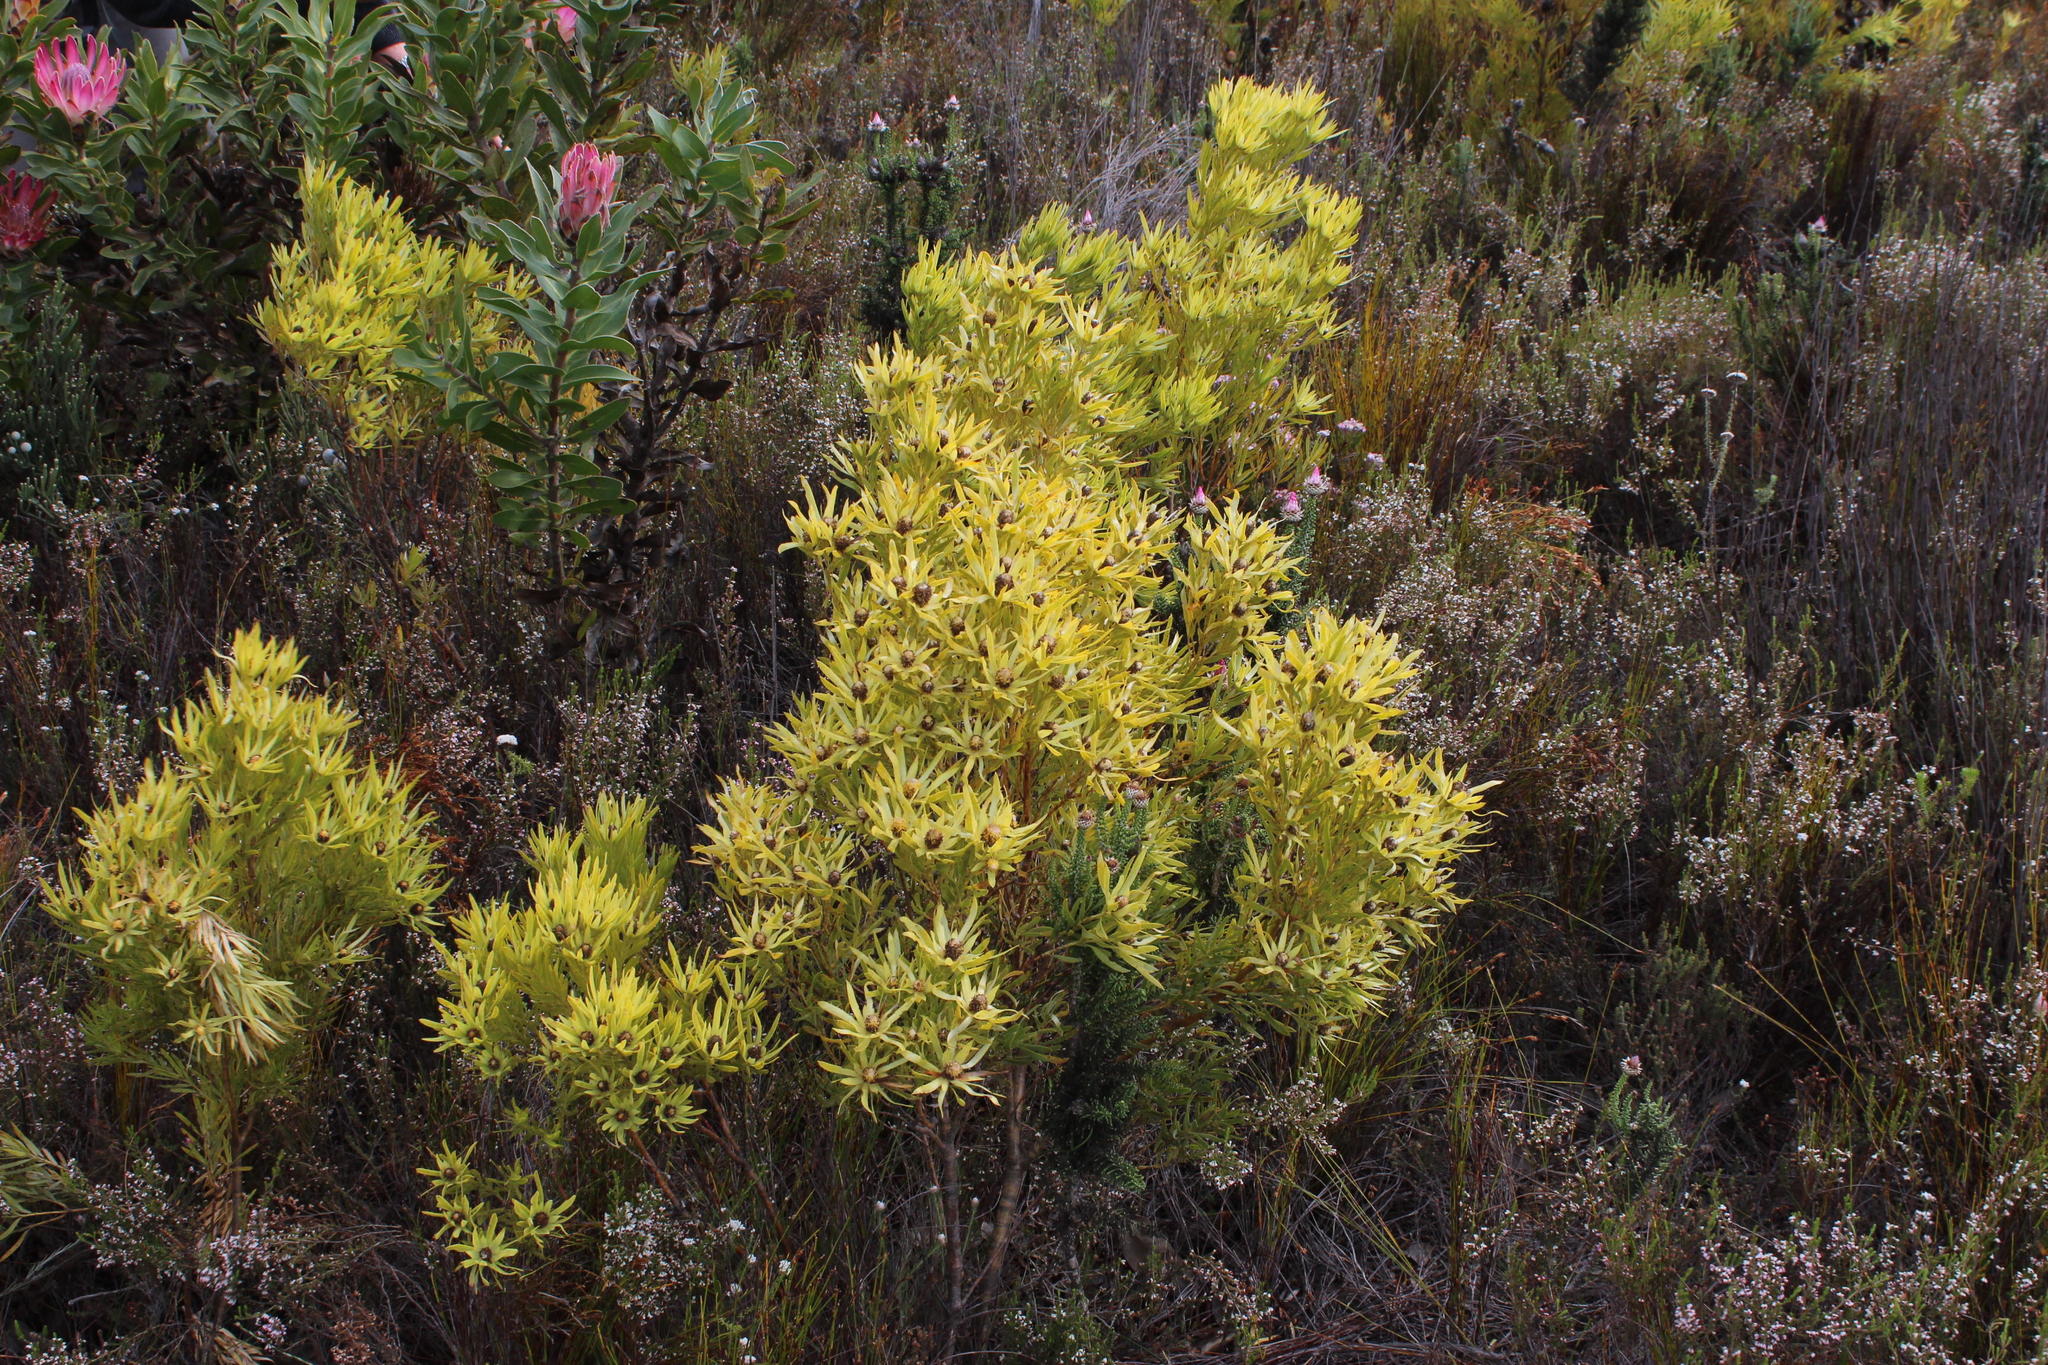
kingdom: Plantae
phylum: Tracheophyta
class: Magnoliopsida
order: Proteales
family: Proteaceae
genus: Leucadendron
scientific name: Leucadendron xanthoconus
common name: Sickle-leaf conebush
